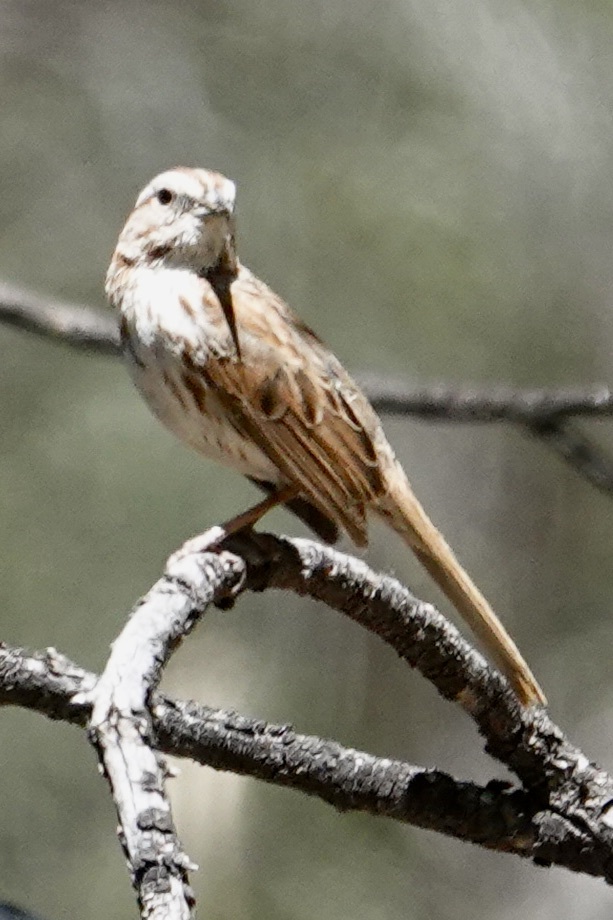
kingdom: Animalia
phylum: Chordata
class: Aves
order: Passeriformes
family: Passerellidae
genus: Melospiza
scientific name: Melospiza melodia
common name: Song sparrow
